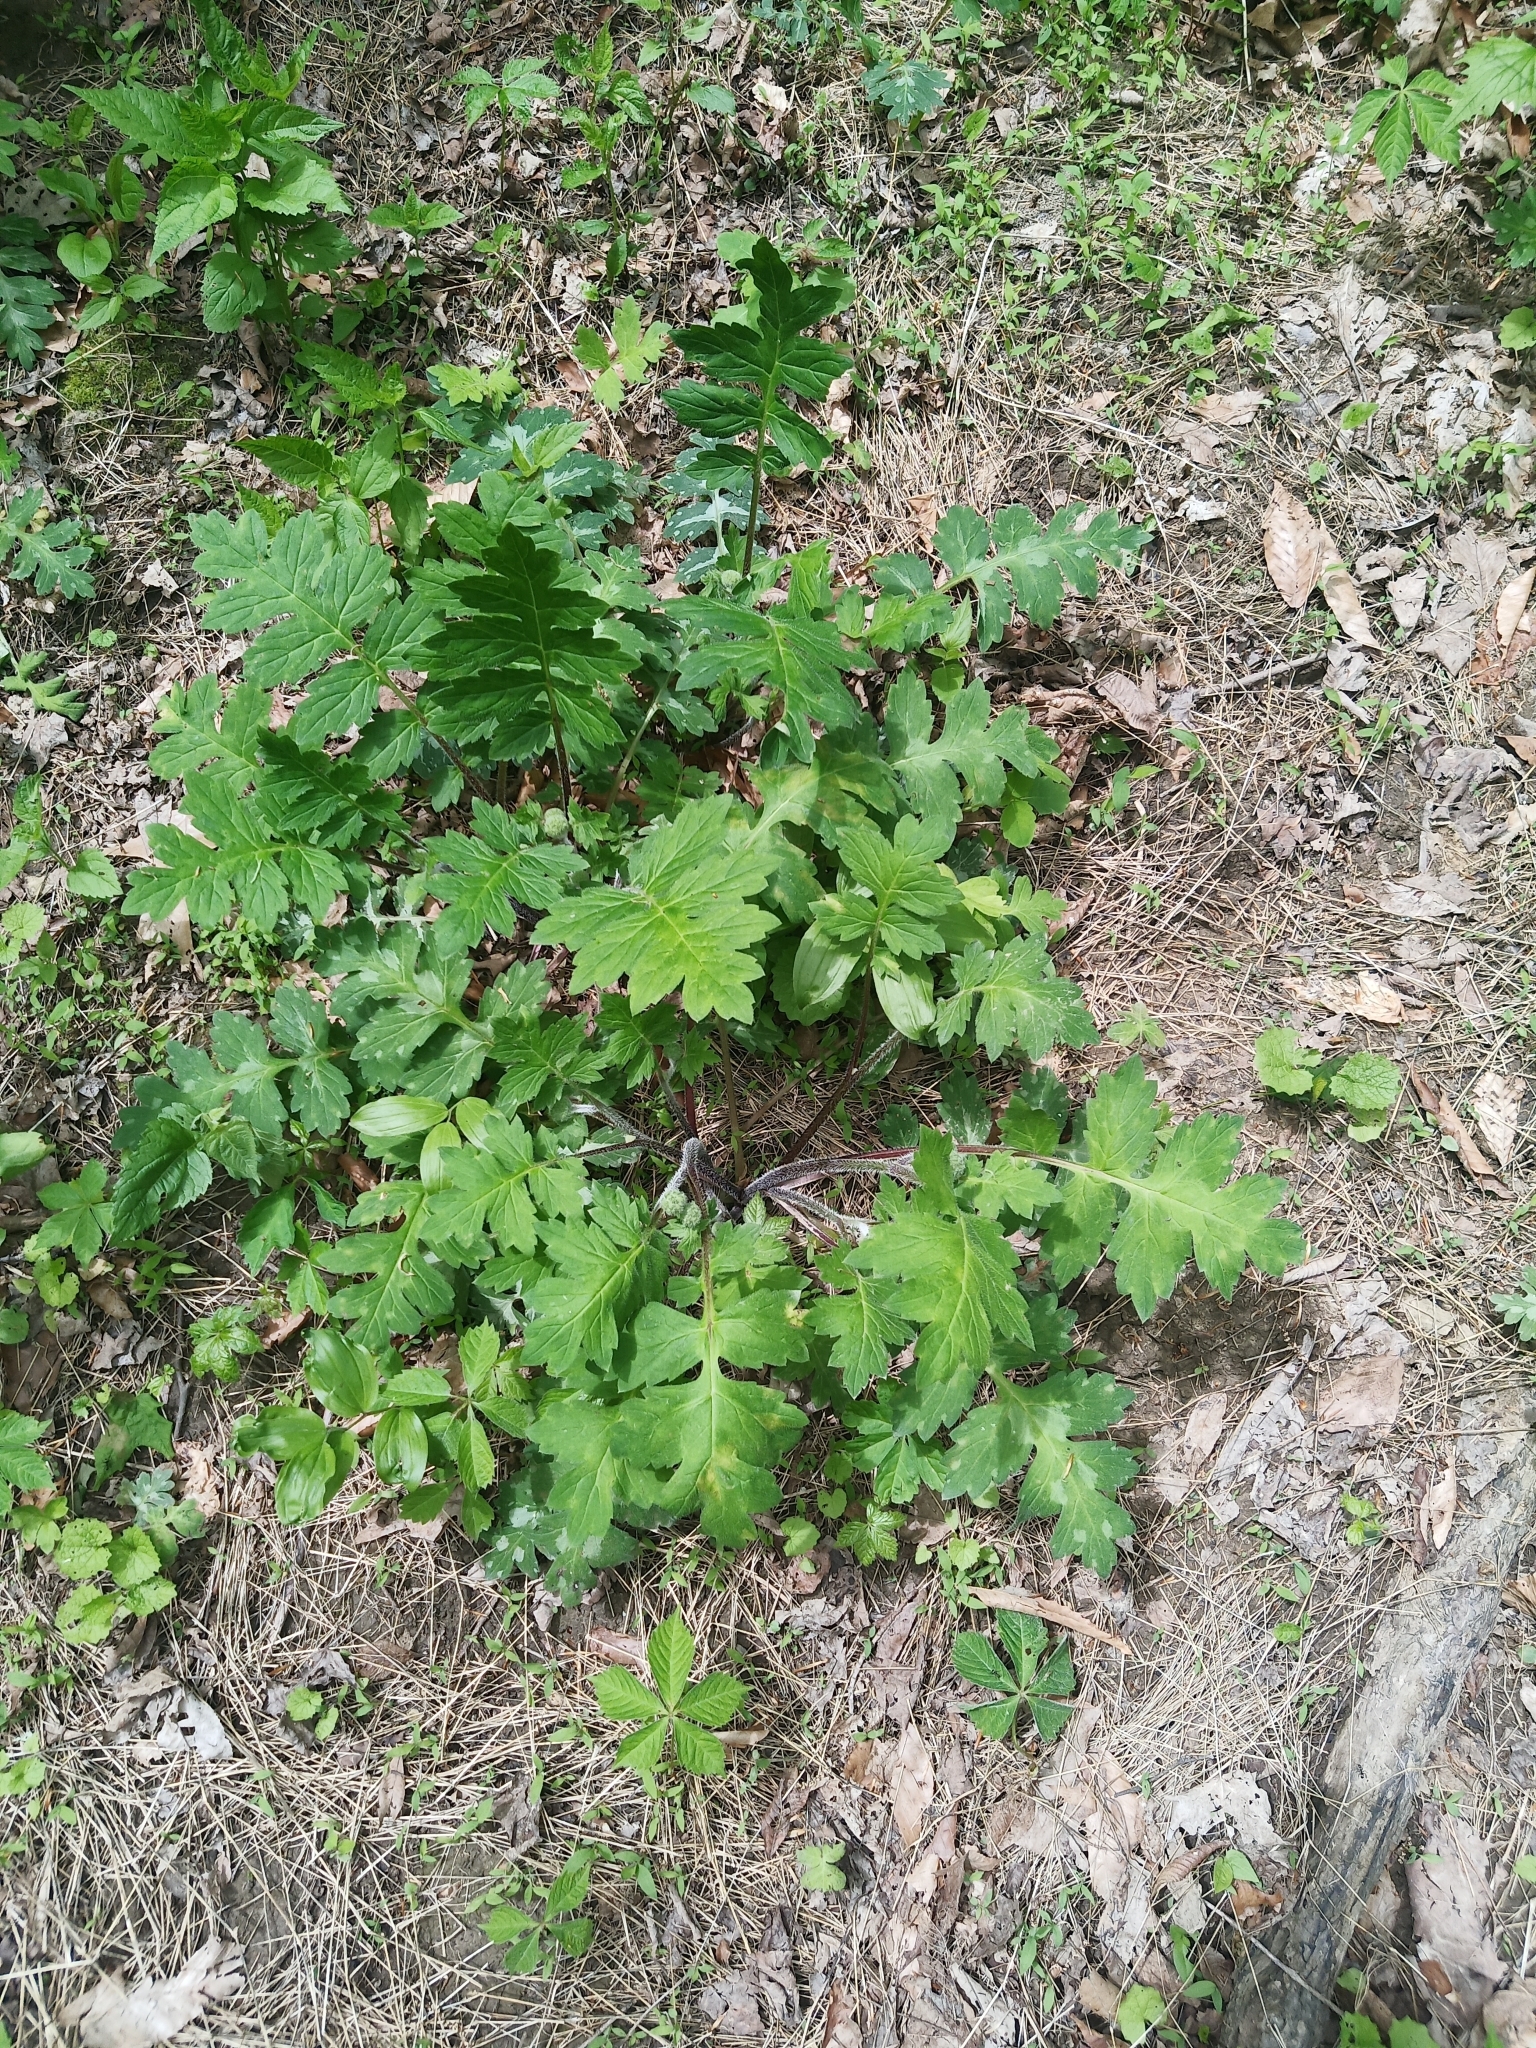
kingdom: Plantae
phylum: Tracheophyta
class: Magnoliopsida
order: Boraginales
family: Hydrophyllaceae
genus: Hydrophyllum
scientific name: Hydrophyllum macrophyllum
